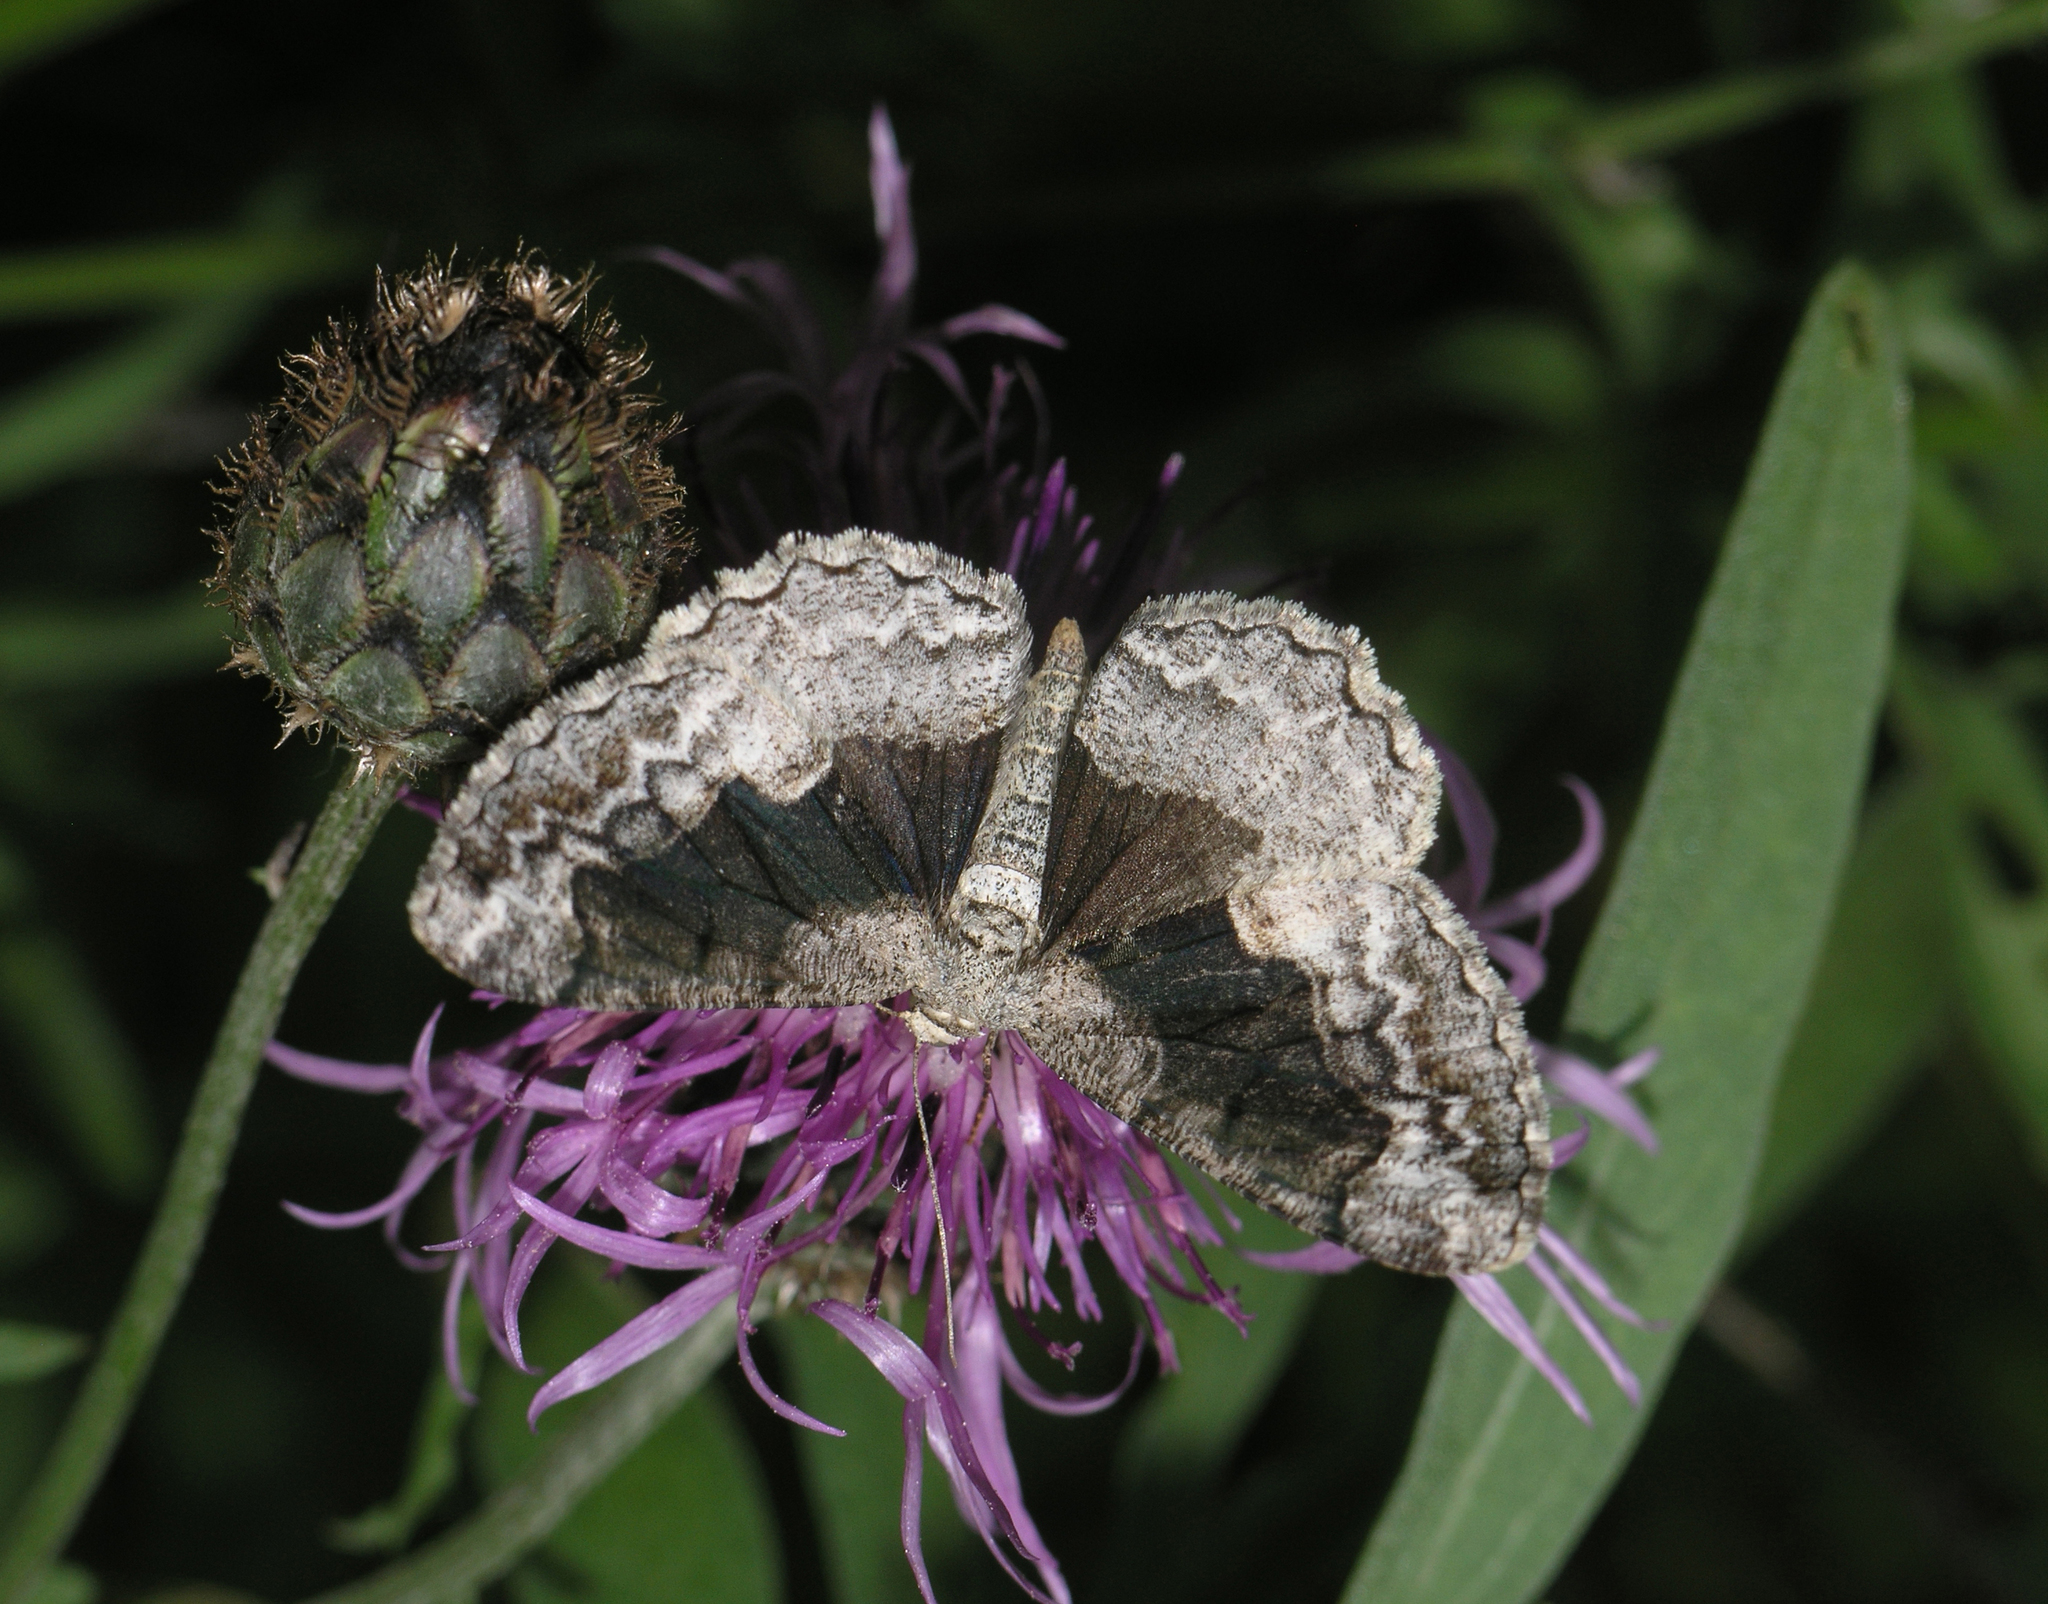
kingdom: Plantae
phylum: Tracheophyta
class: Magnoliopsida
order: Asterales
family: Asteraceae
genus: Centaurea
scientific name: Centaurea scabiosa
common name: Greater knapweed
